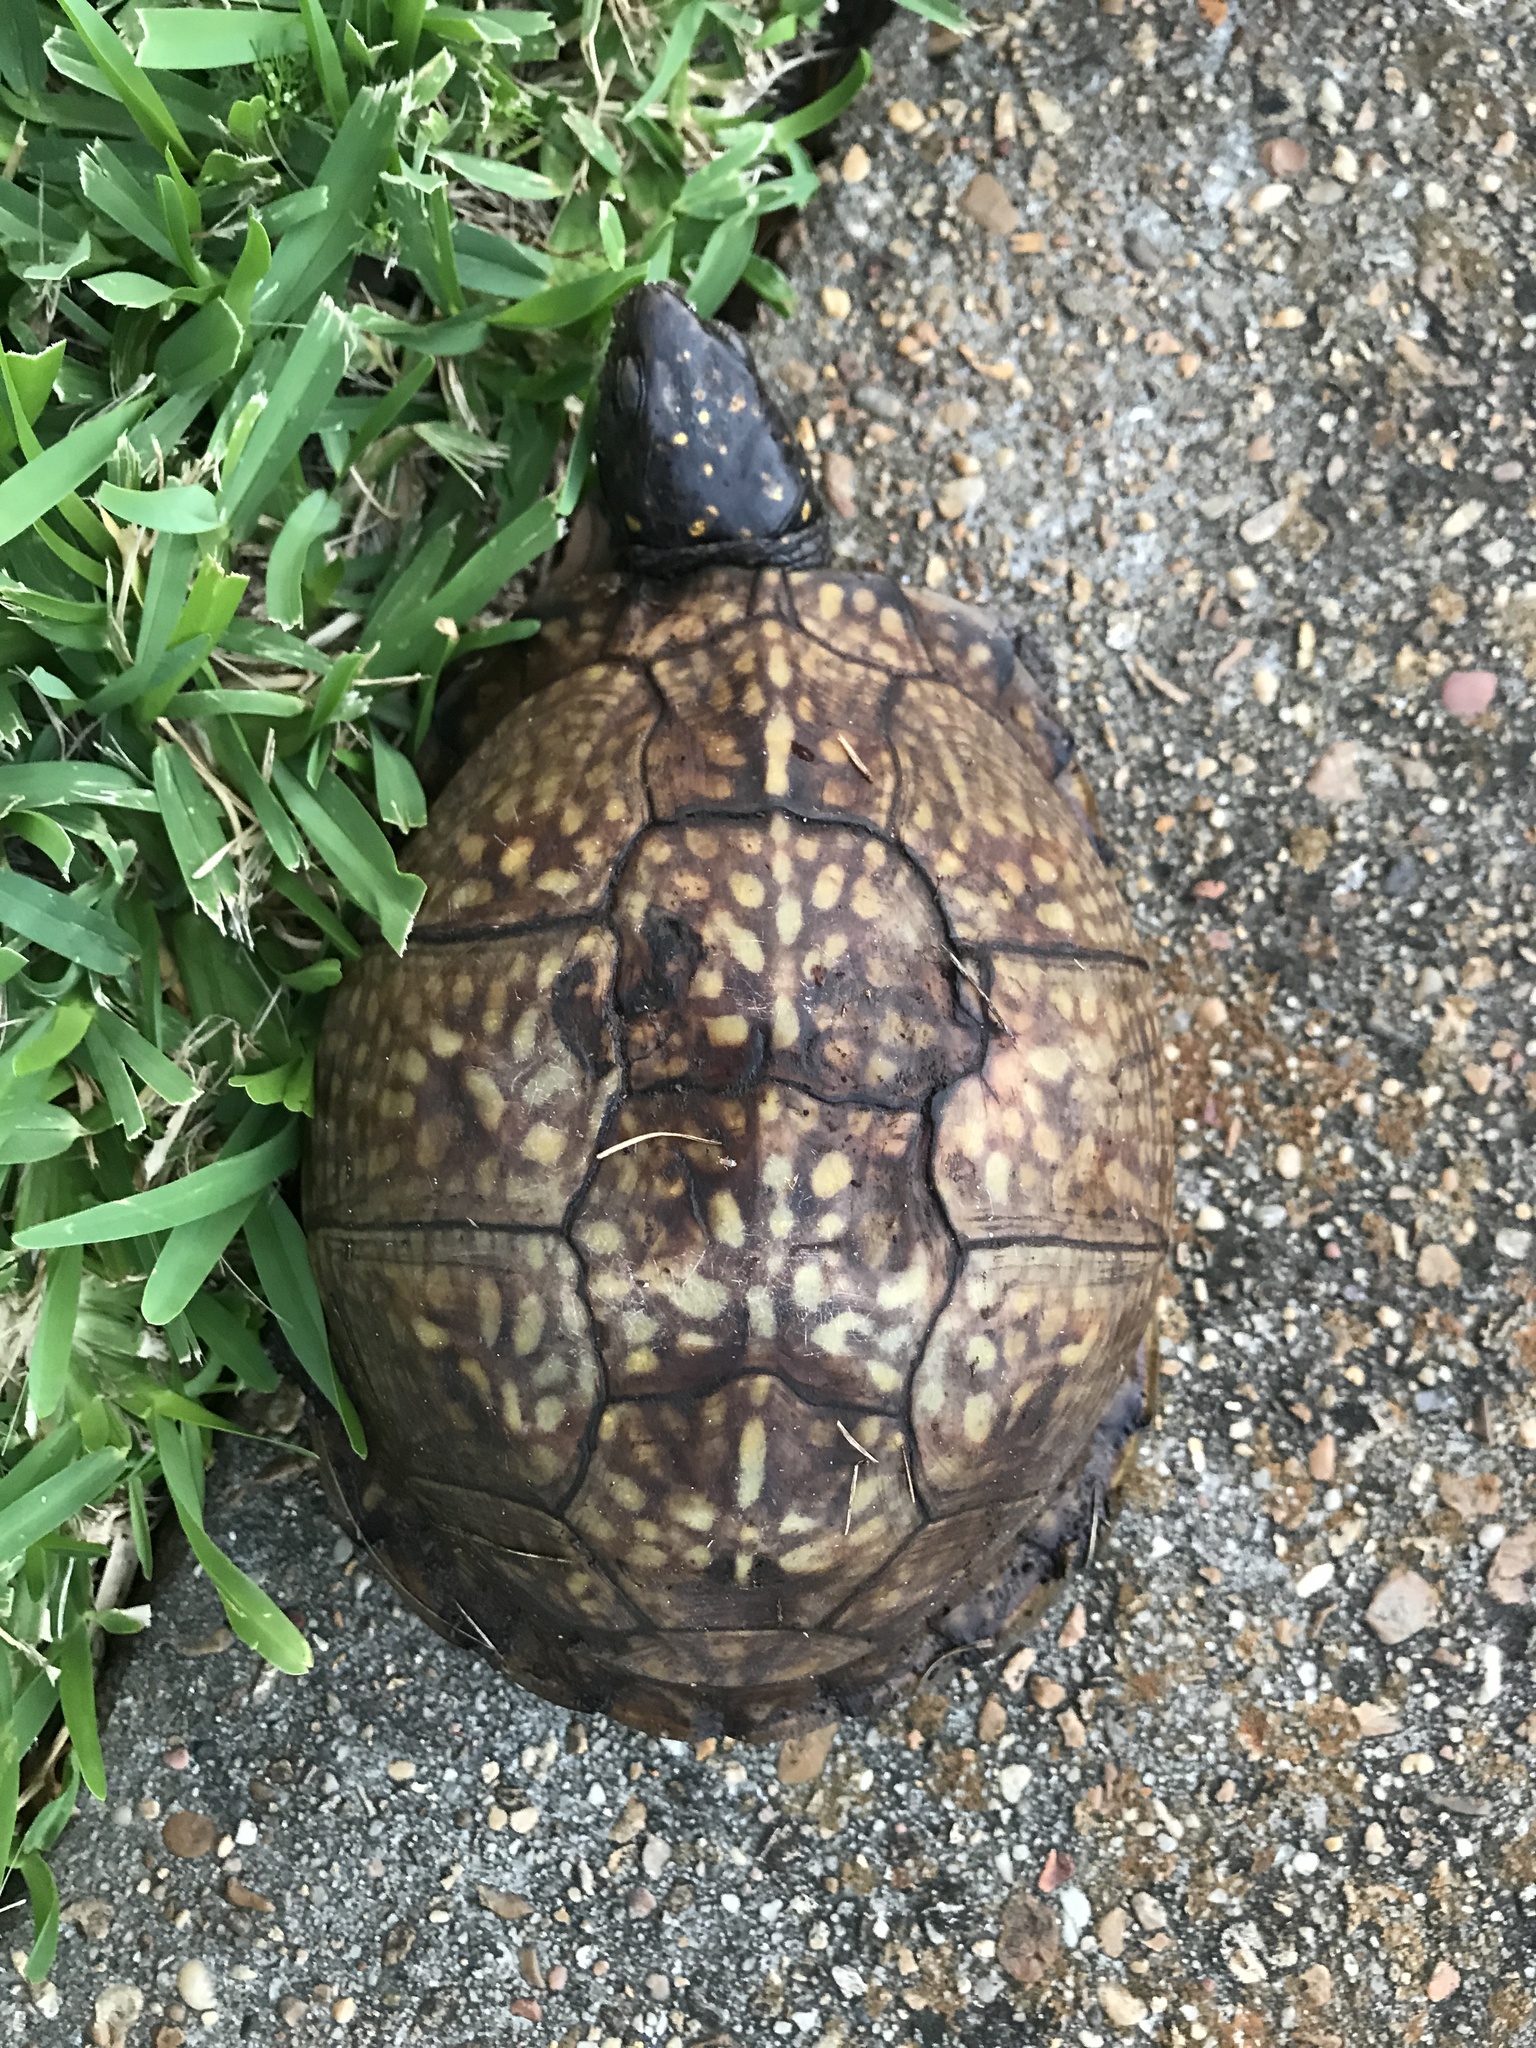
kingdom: Animalia
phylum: Chordata
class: Testudines
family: Emydidae
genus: Terrapene
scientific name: Terrapene carolina
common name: Common box turtle
